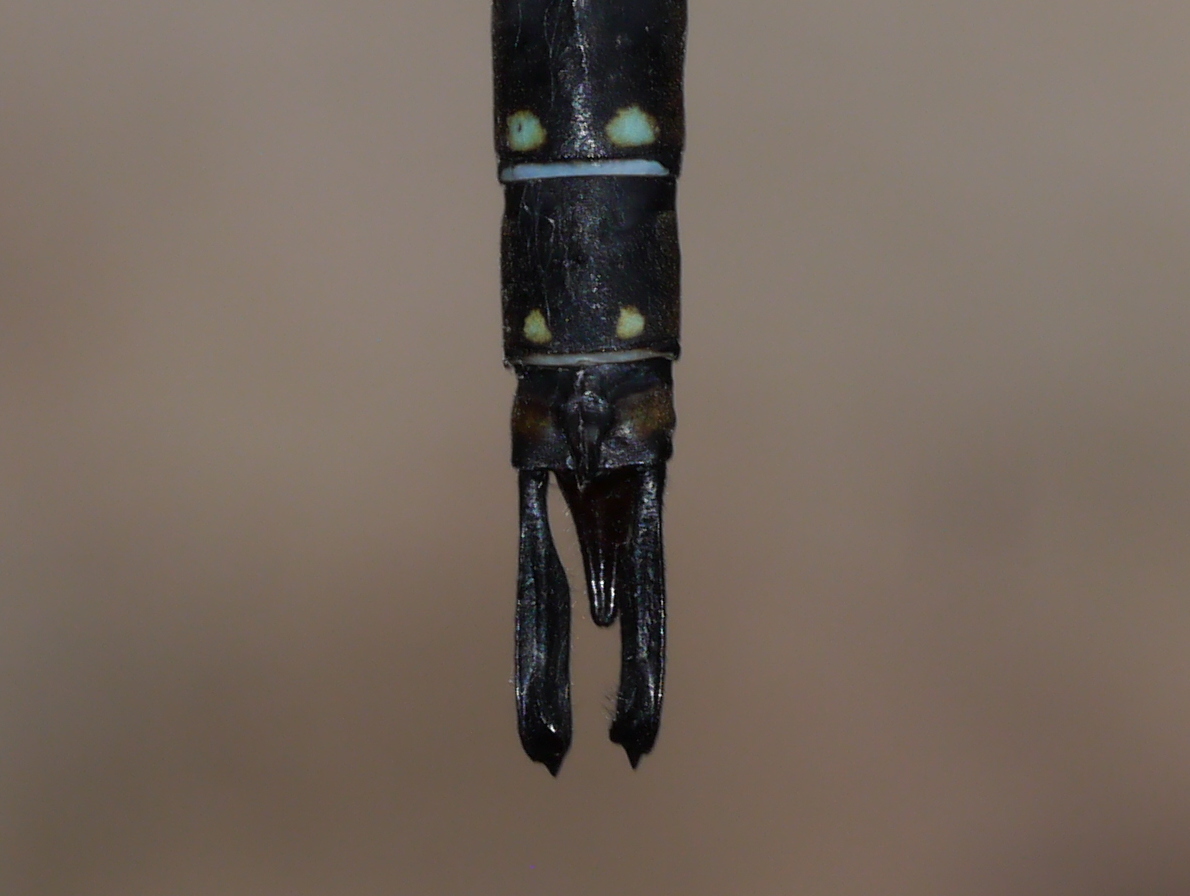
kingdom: Animalia
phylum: Arthropoda
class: Insecta
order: Odonata
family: Aeshnidae
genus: Oplonaeschna
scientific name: Oplonaeschna armata
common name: Riffle darner
